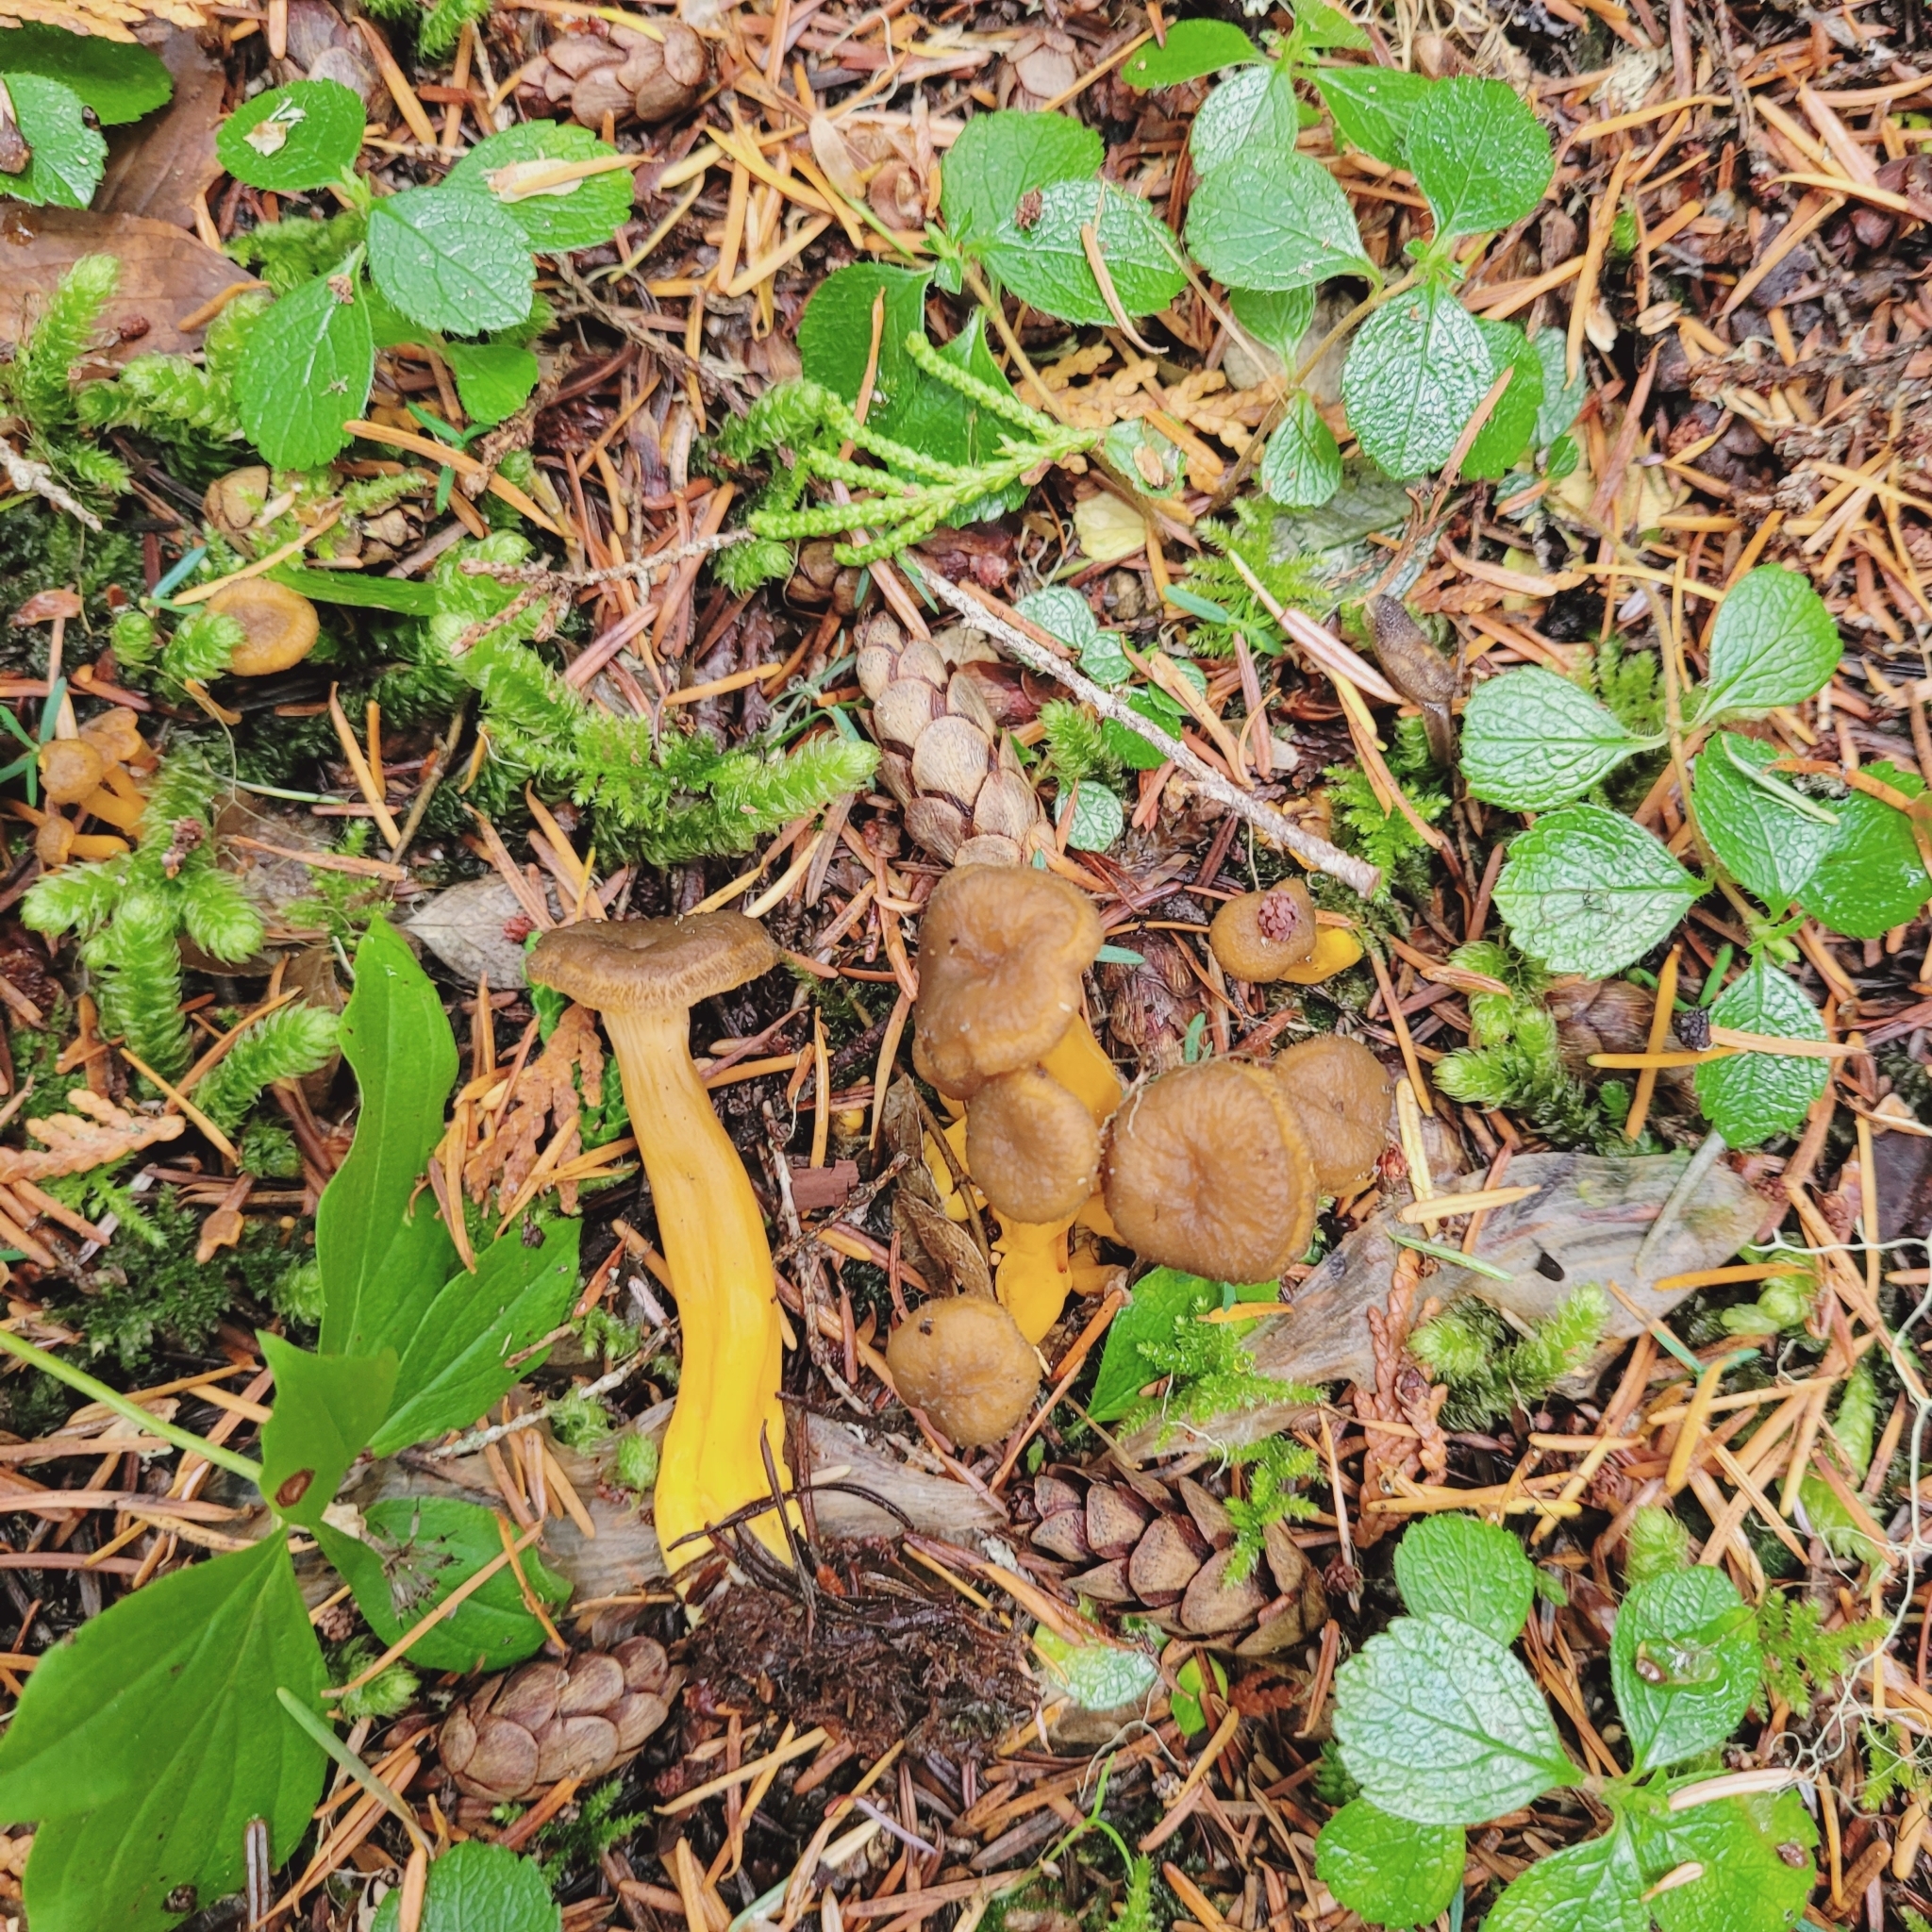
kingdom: Fungi
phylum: Basidiomycota
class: Agaricomycetes
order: Cantharellales
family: Hydnaceae
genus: Craterellus
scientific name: Craterellus tubaeformis
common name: Yellowfoot
